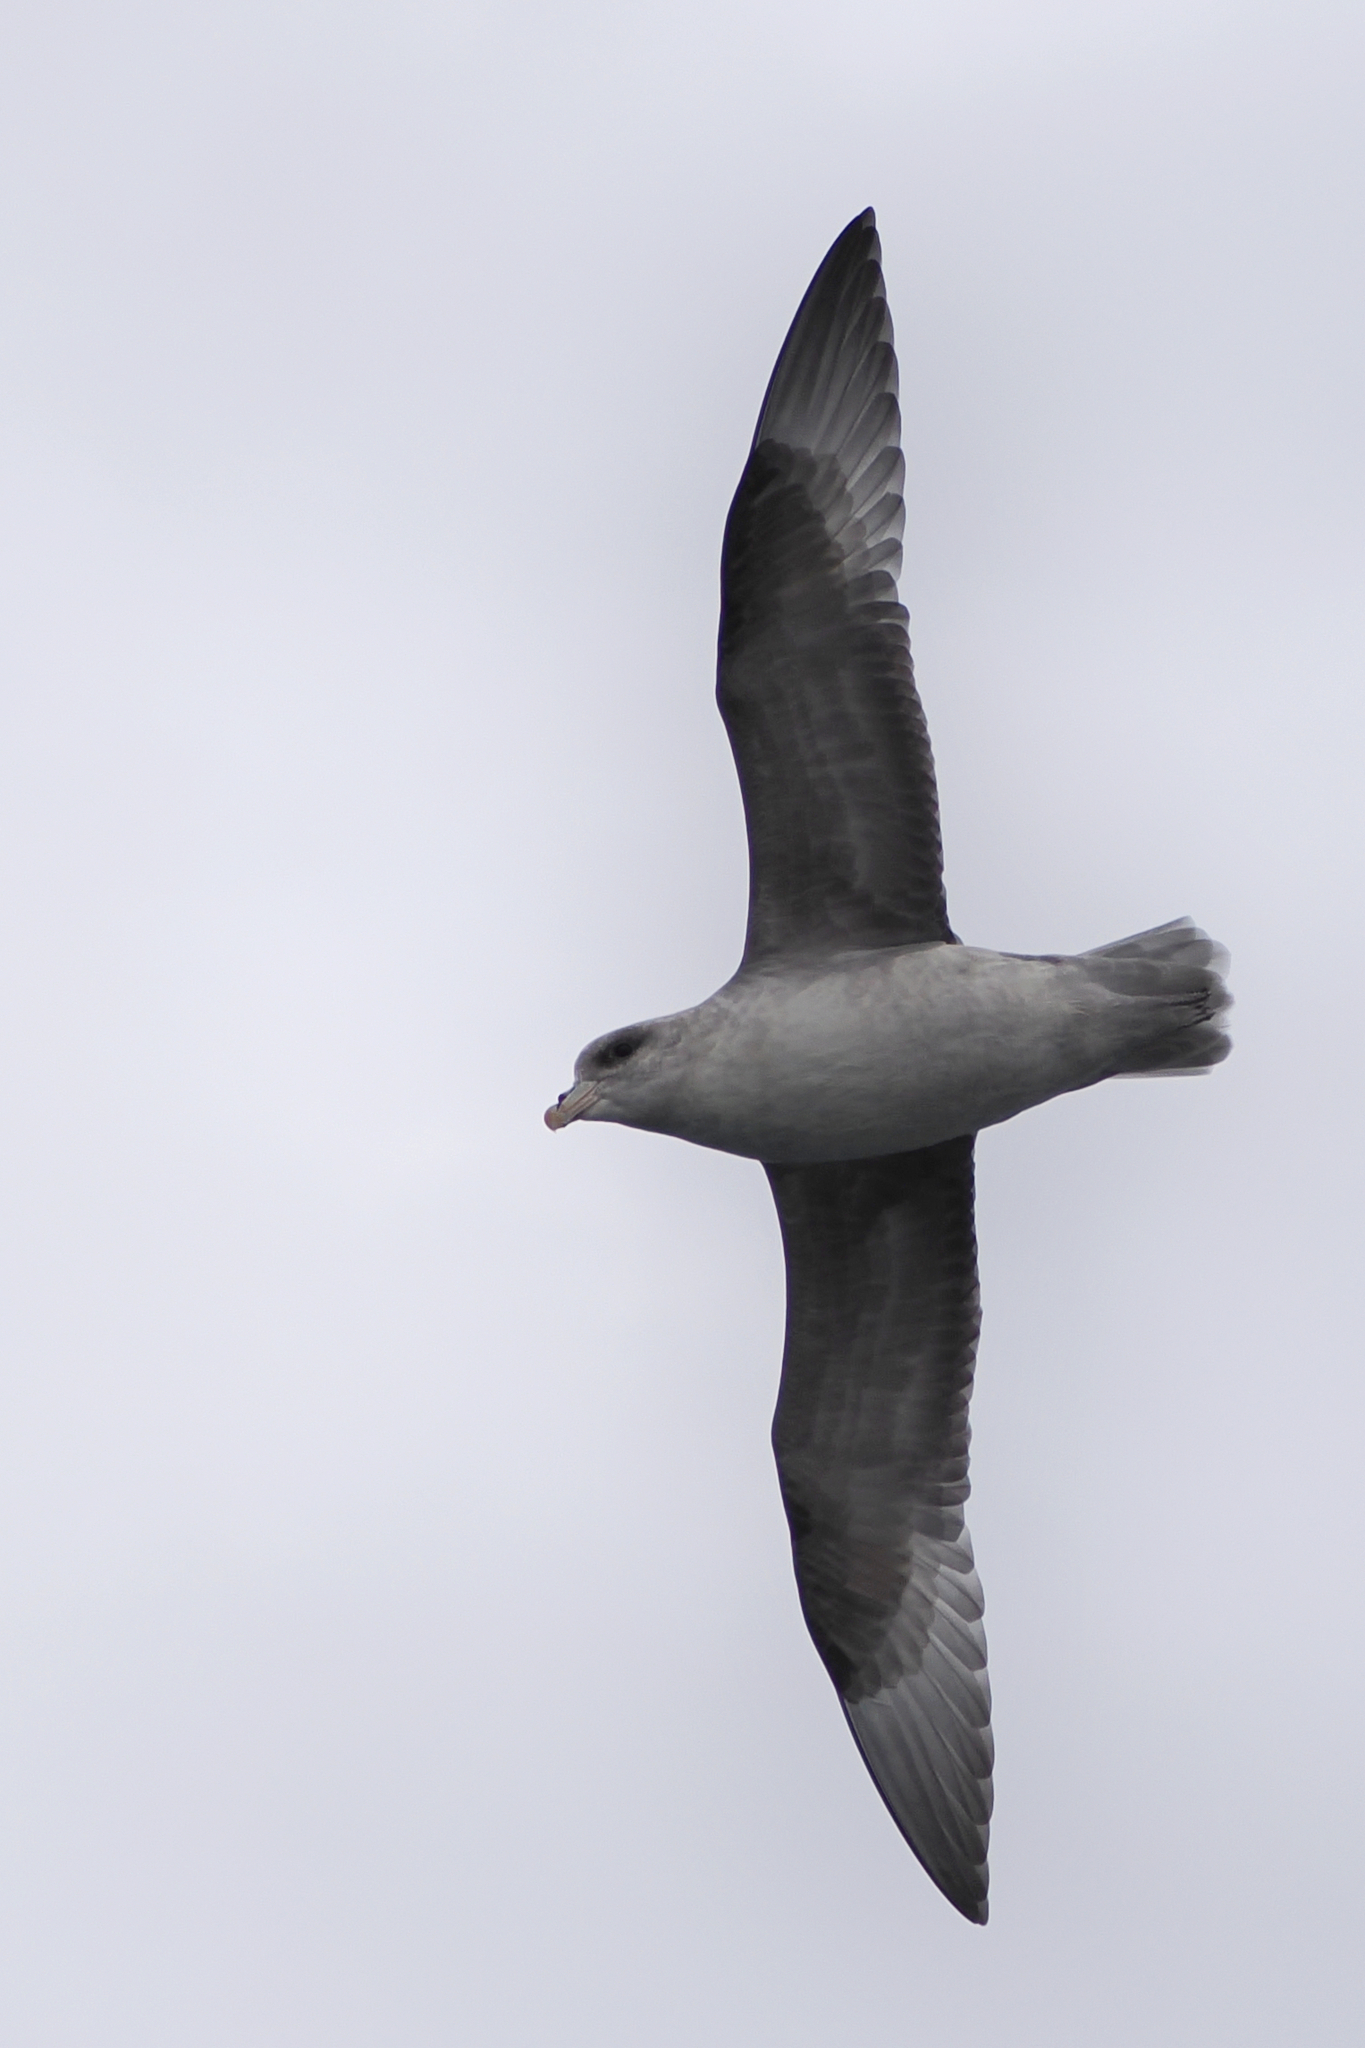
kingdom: Animalia
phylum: Chordata
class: Aves
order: Procellariiformes
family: Procellariidae
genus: Fulmarus
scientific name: Fulmarus glacialis
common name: Northern fulmar
